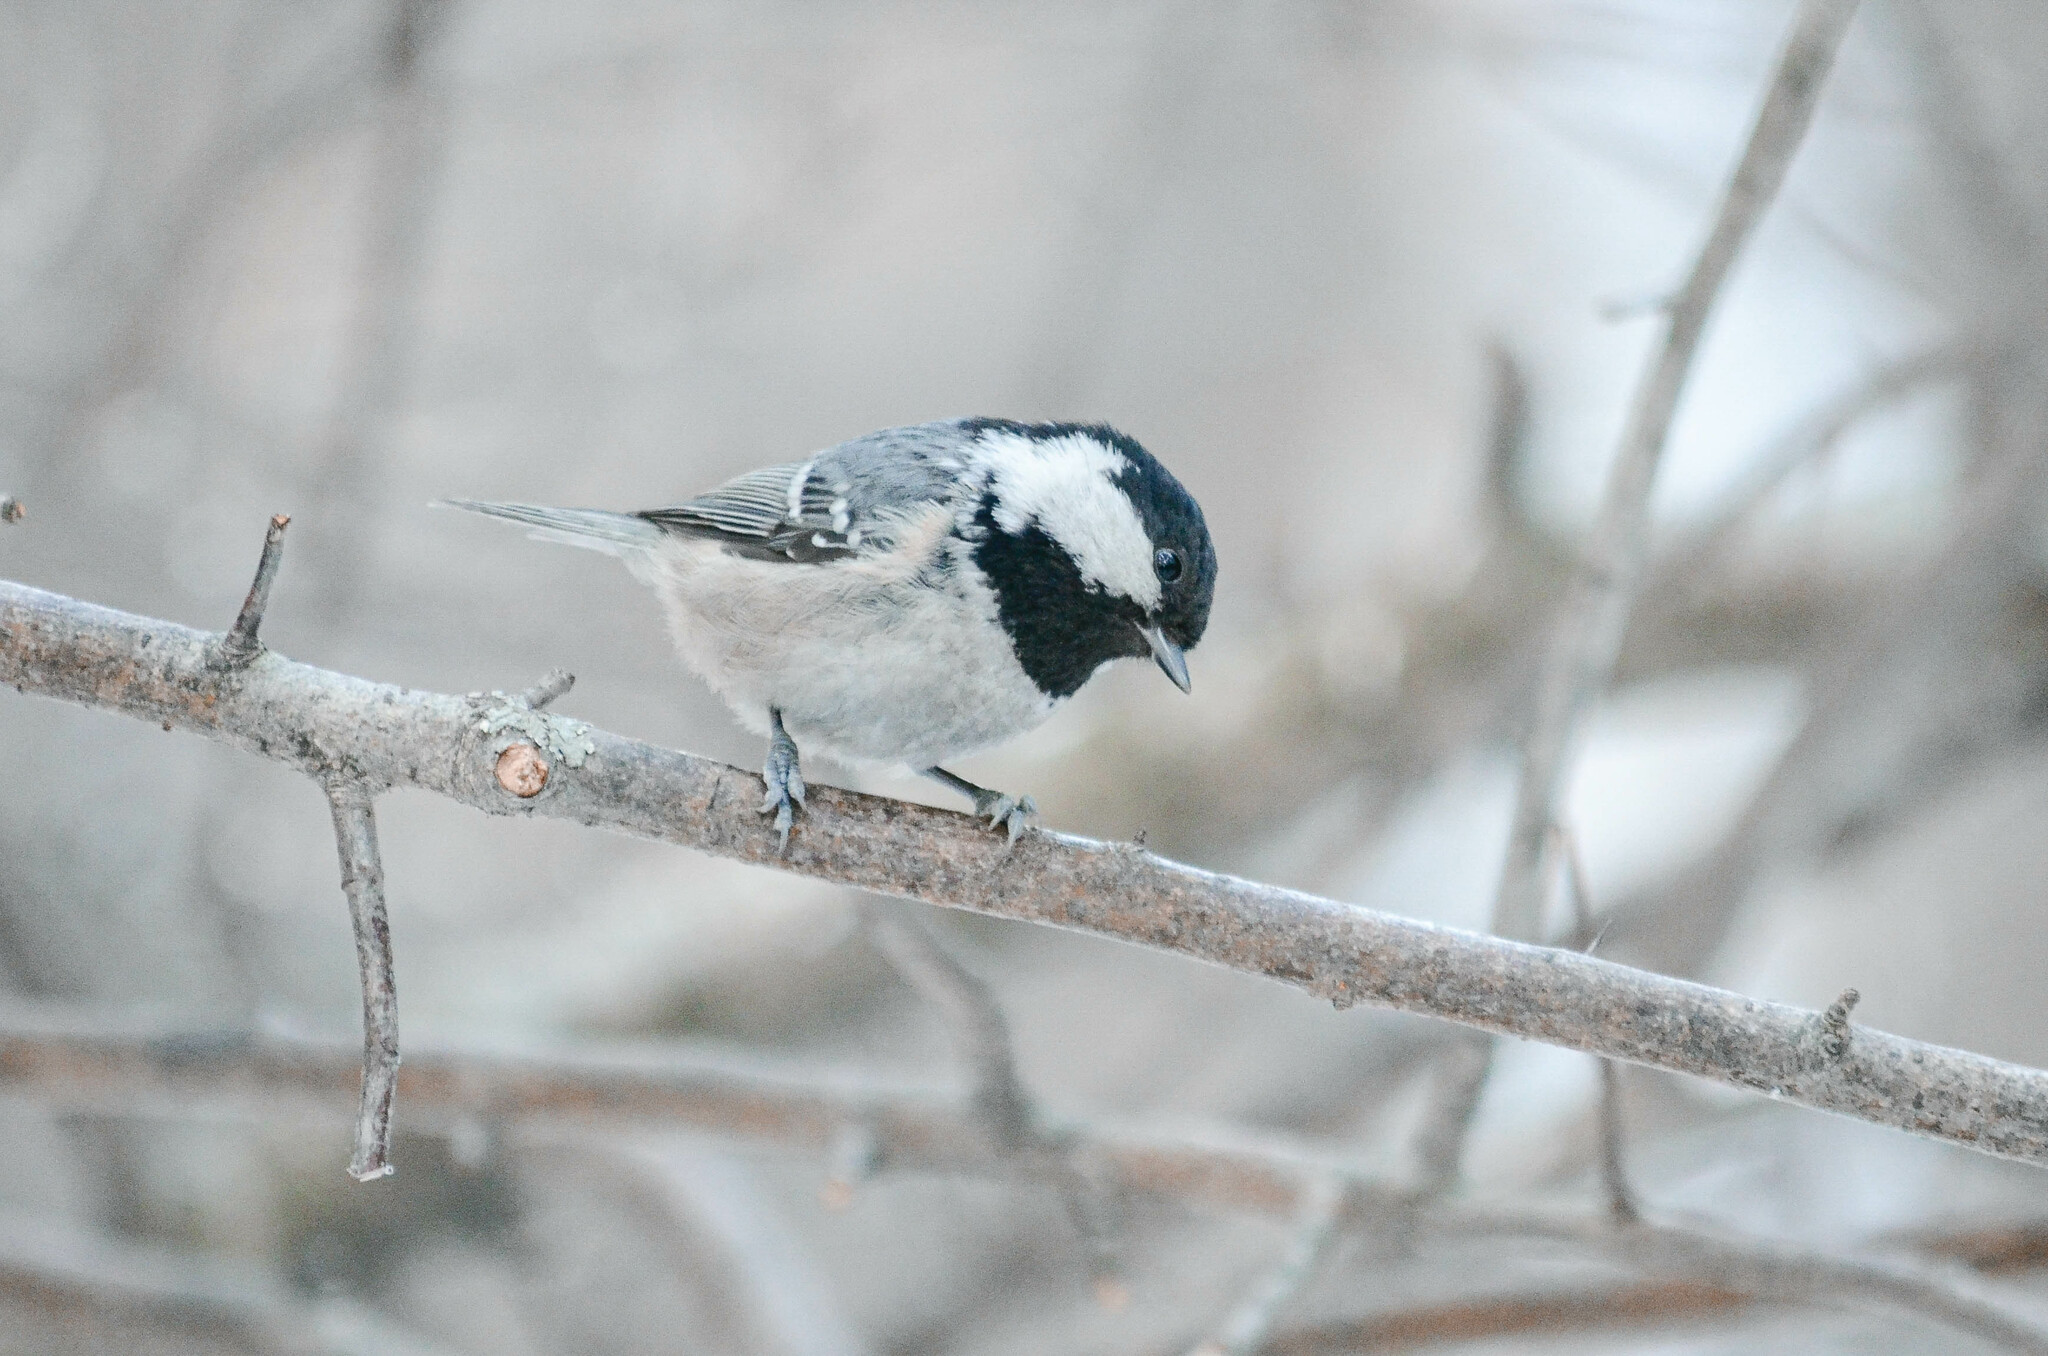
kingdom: Animalia
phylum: Chordata
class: Aves
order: Passeriformes
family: Paridae
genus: Periparus
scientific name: Periparus ater
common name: Coal tit
